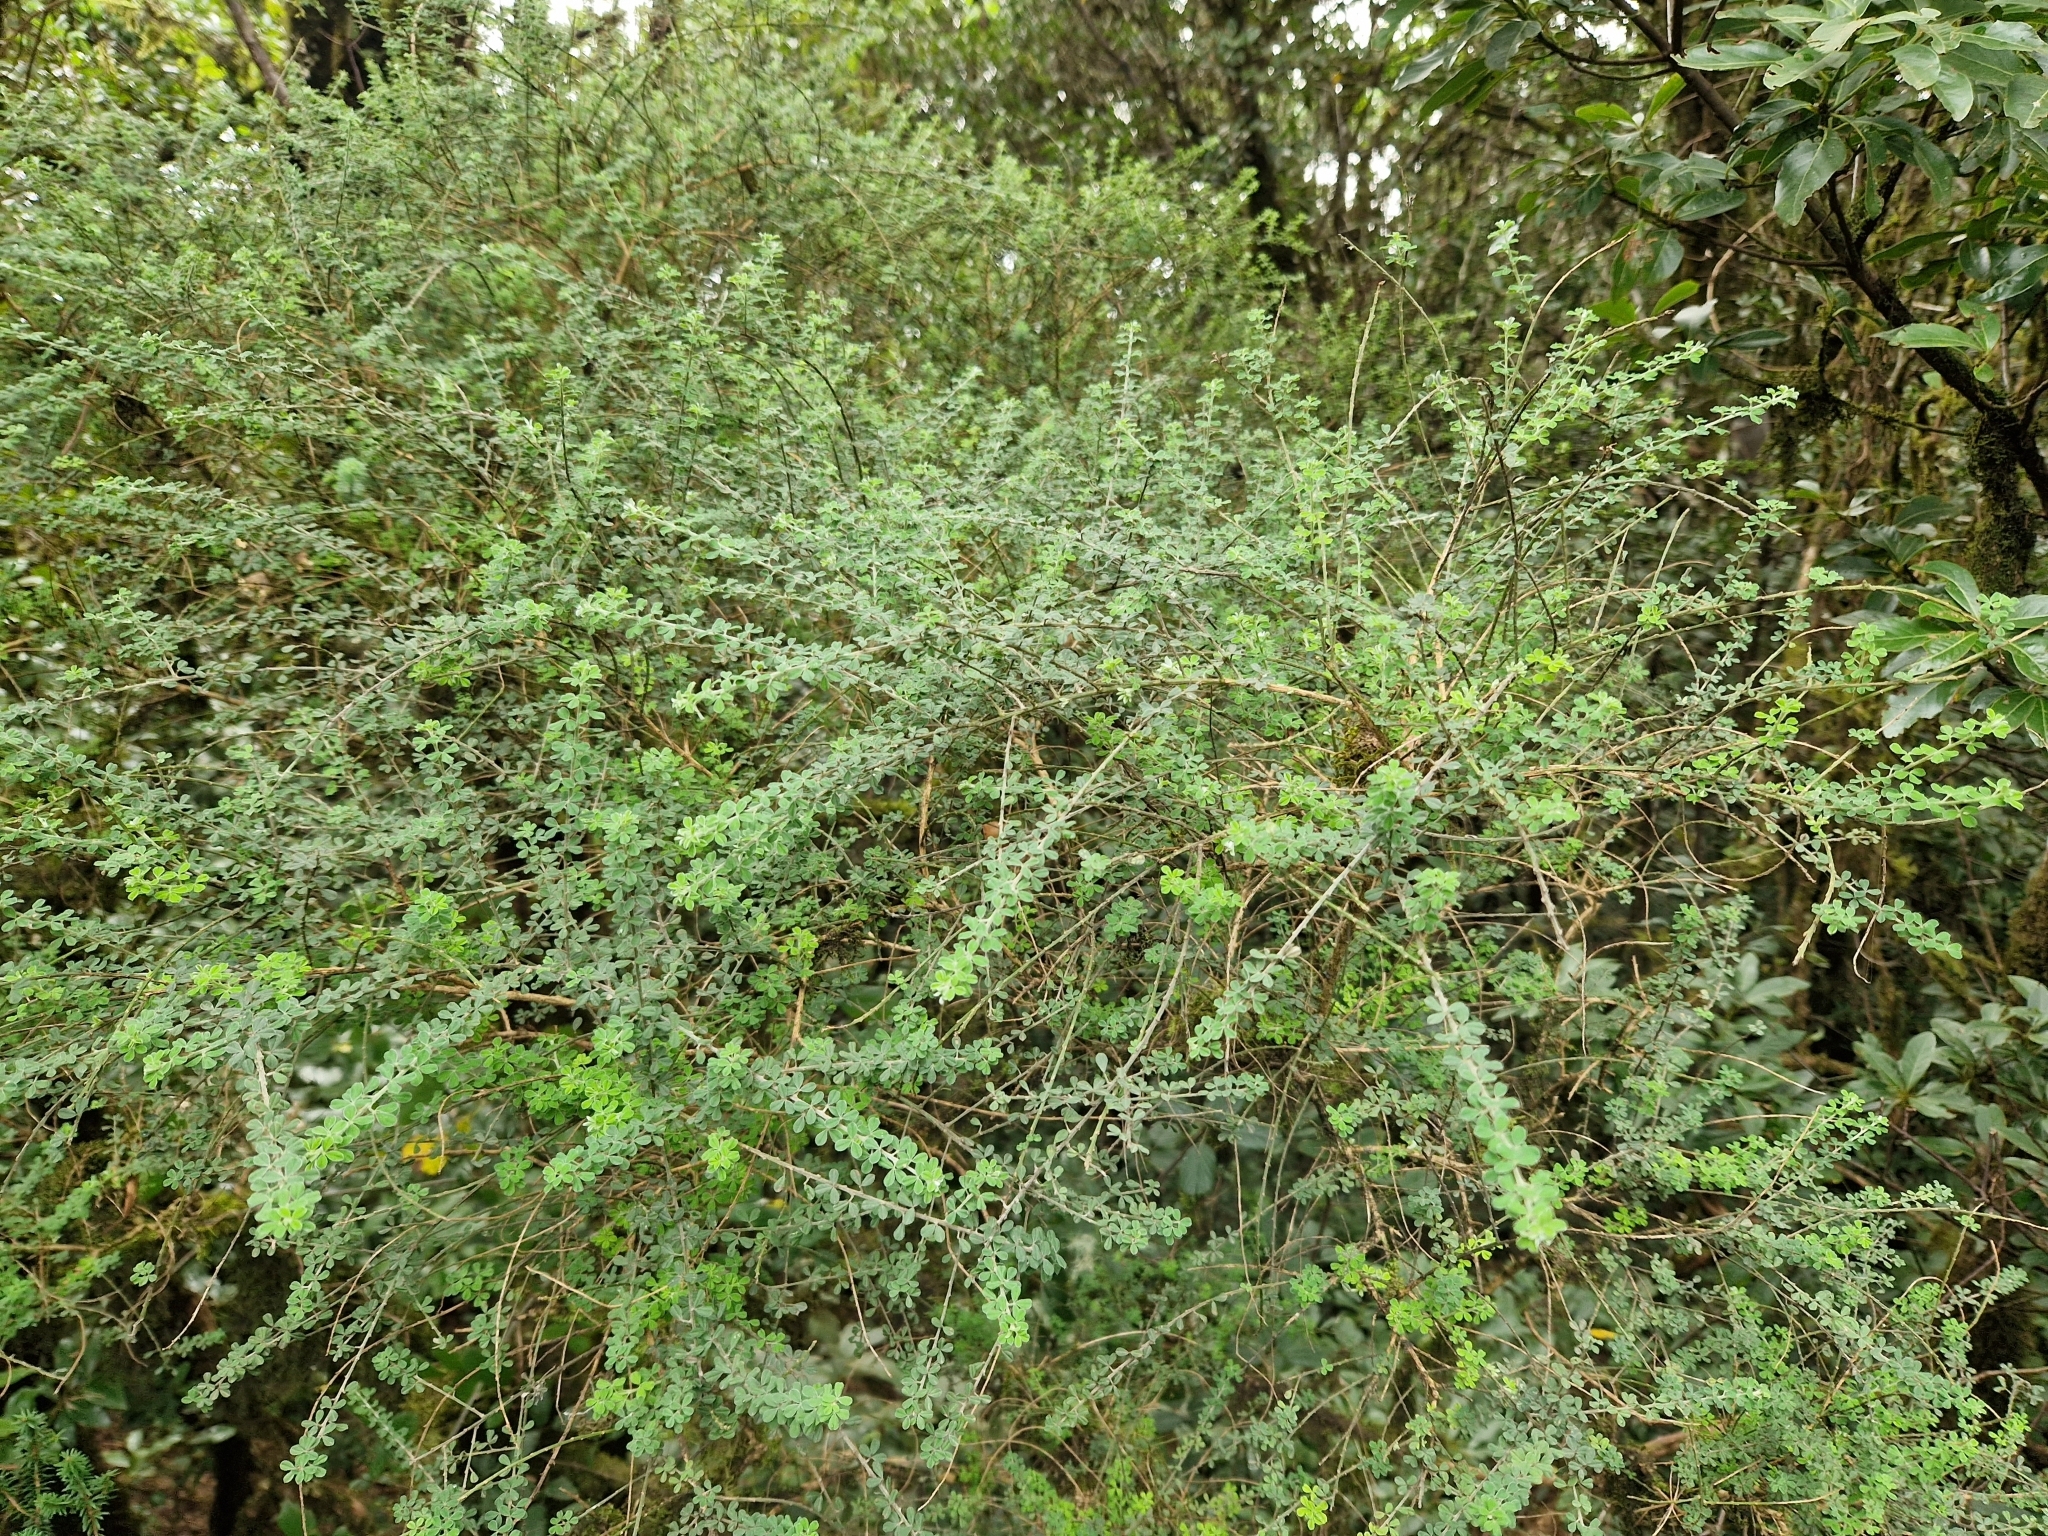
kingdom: Plantae
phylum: Tracheophyta
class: Magnoliopsida
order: Fabales
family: Fabaceae
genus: Genista
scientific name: Genista canariensis
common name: Canary broom
